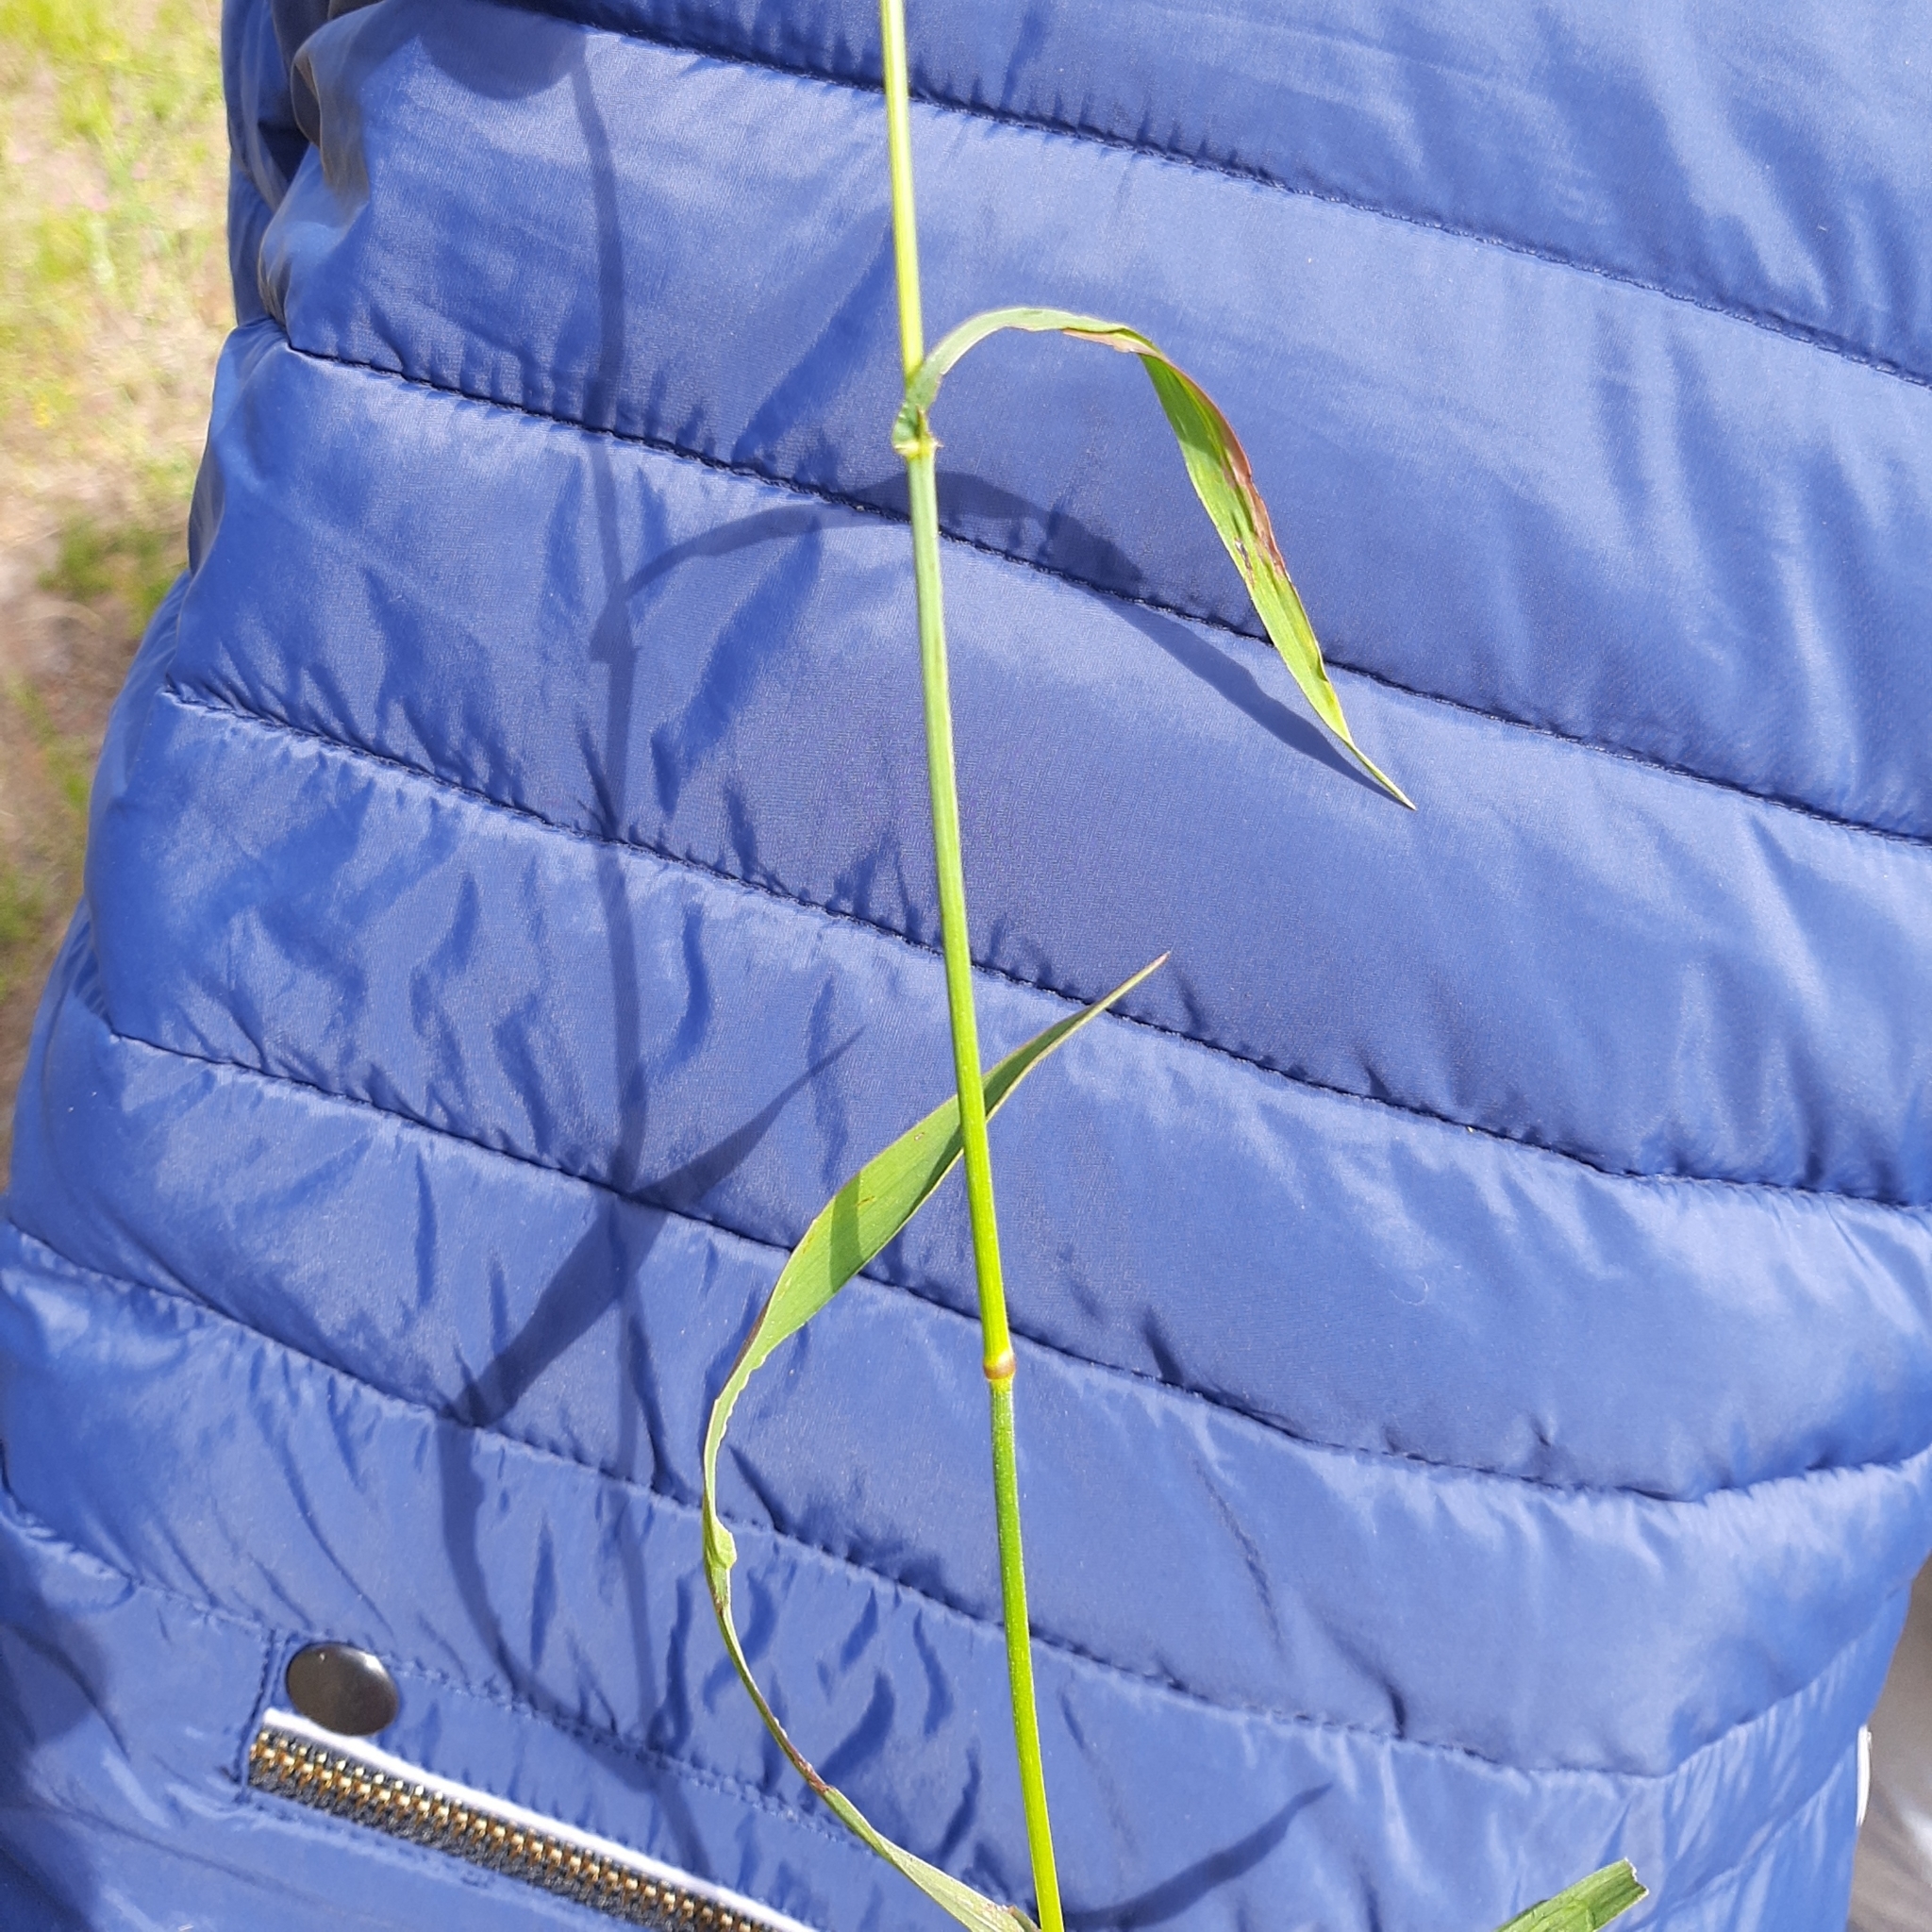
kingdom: Plantae
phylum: Tracheophyta
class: Liliopsida
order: Poales
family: Poaceae
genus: Bromus
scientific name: Bromus inermis
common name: Smooth brome
